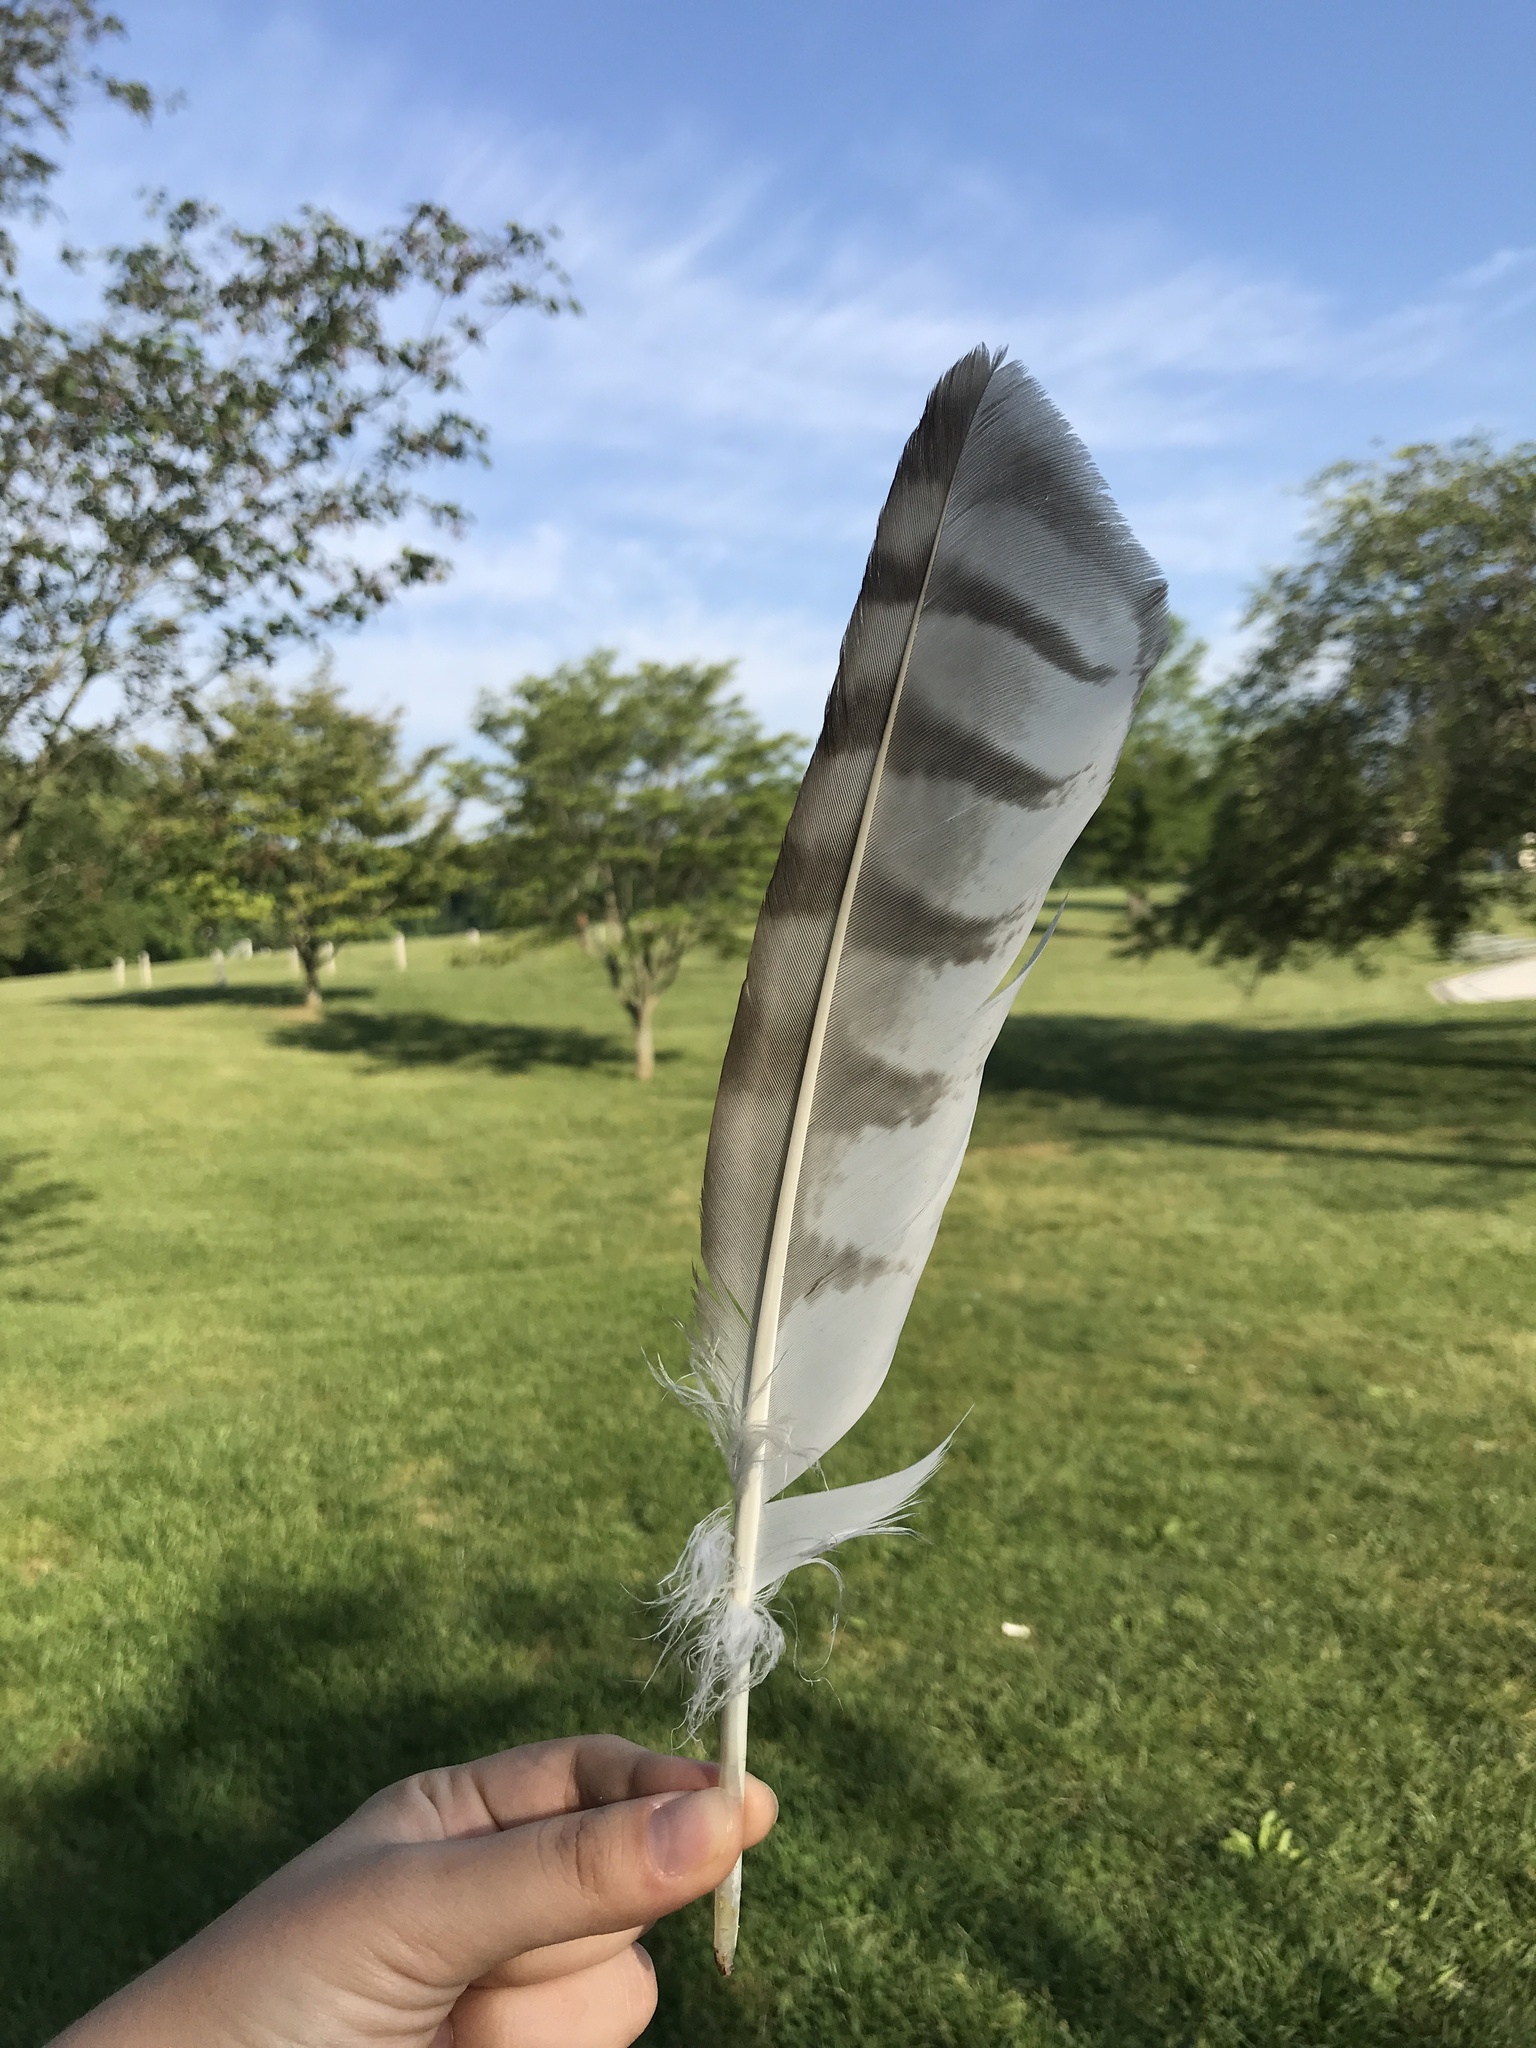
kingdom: Animalia
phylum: Chordata
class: Aves
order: Accipitriformes
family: Accipitridae
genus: Buteo
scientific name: Buteo jamaicensis
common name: Red-tailed hawk
